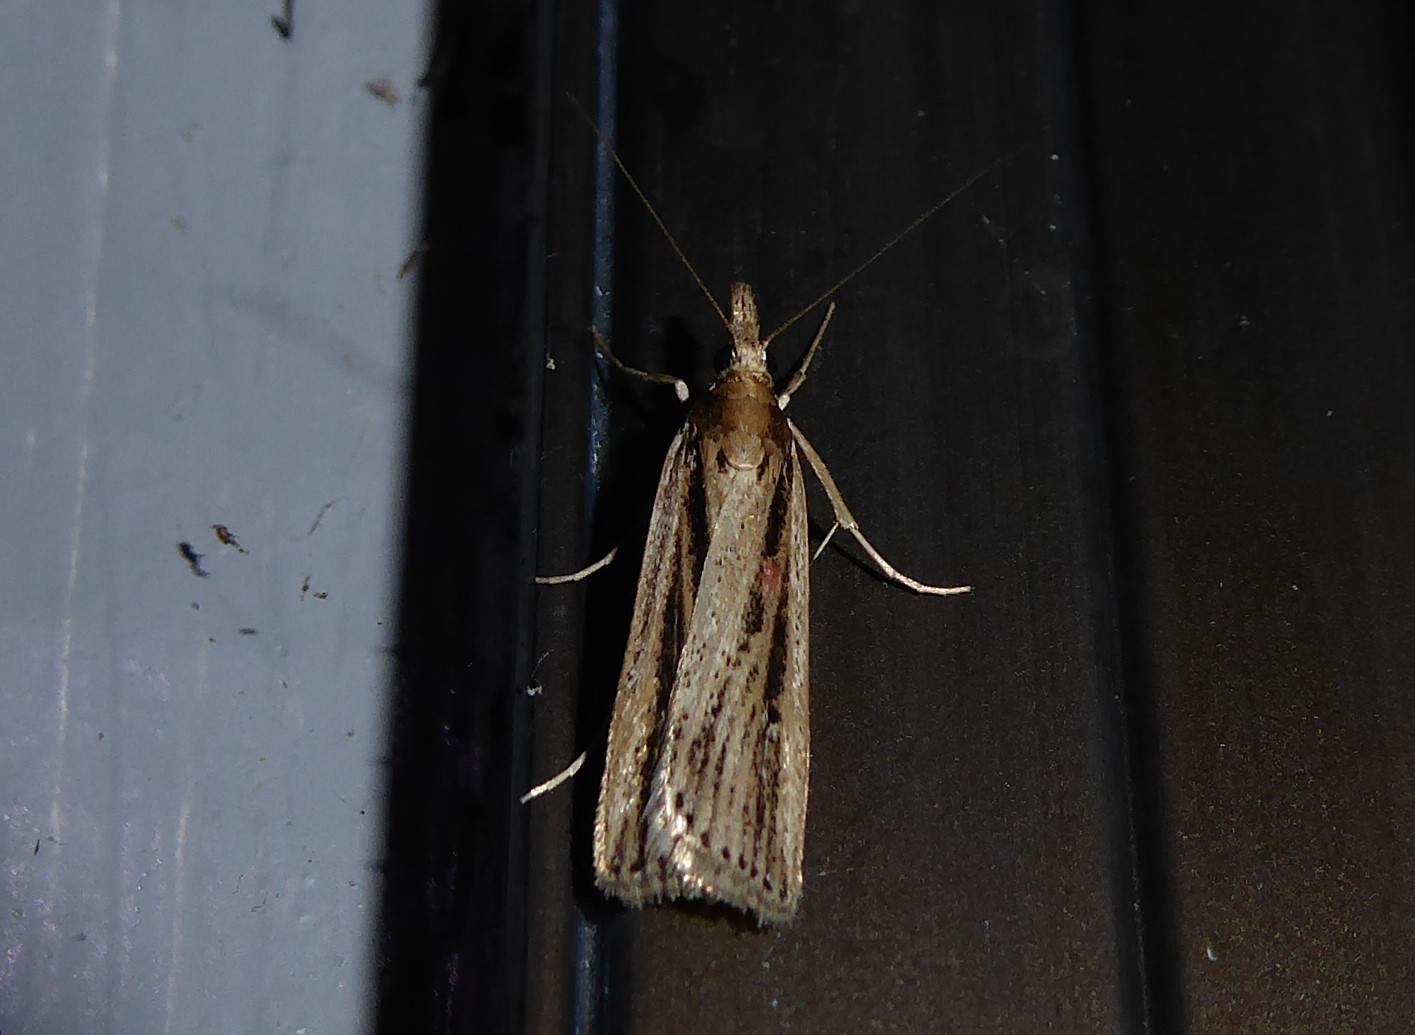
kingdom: Animalia
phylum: Arthropoda
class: Insecta
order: Lepidoptera
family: Crambidae
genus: Eudonia
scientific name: Eudonia sabulosella
